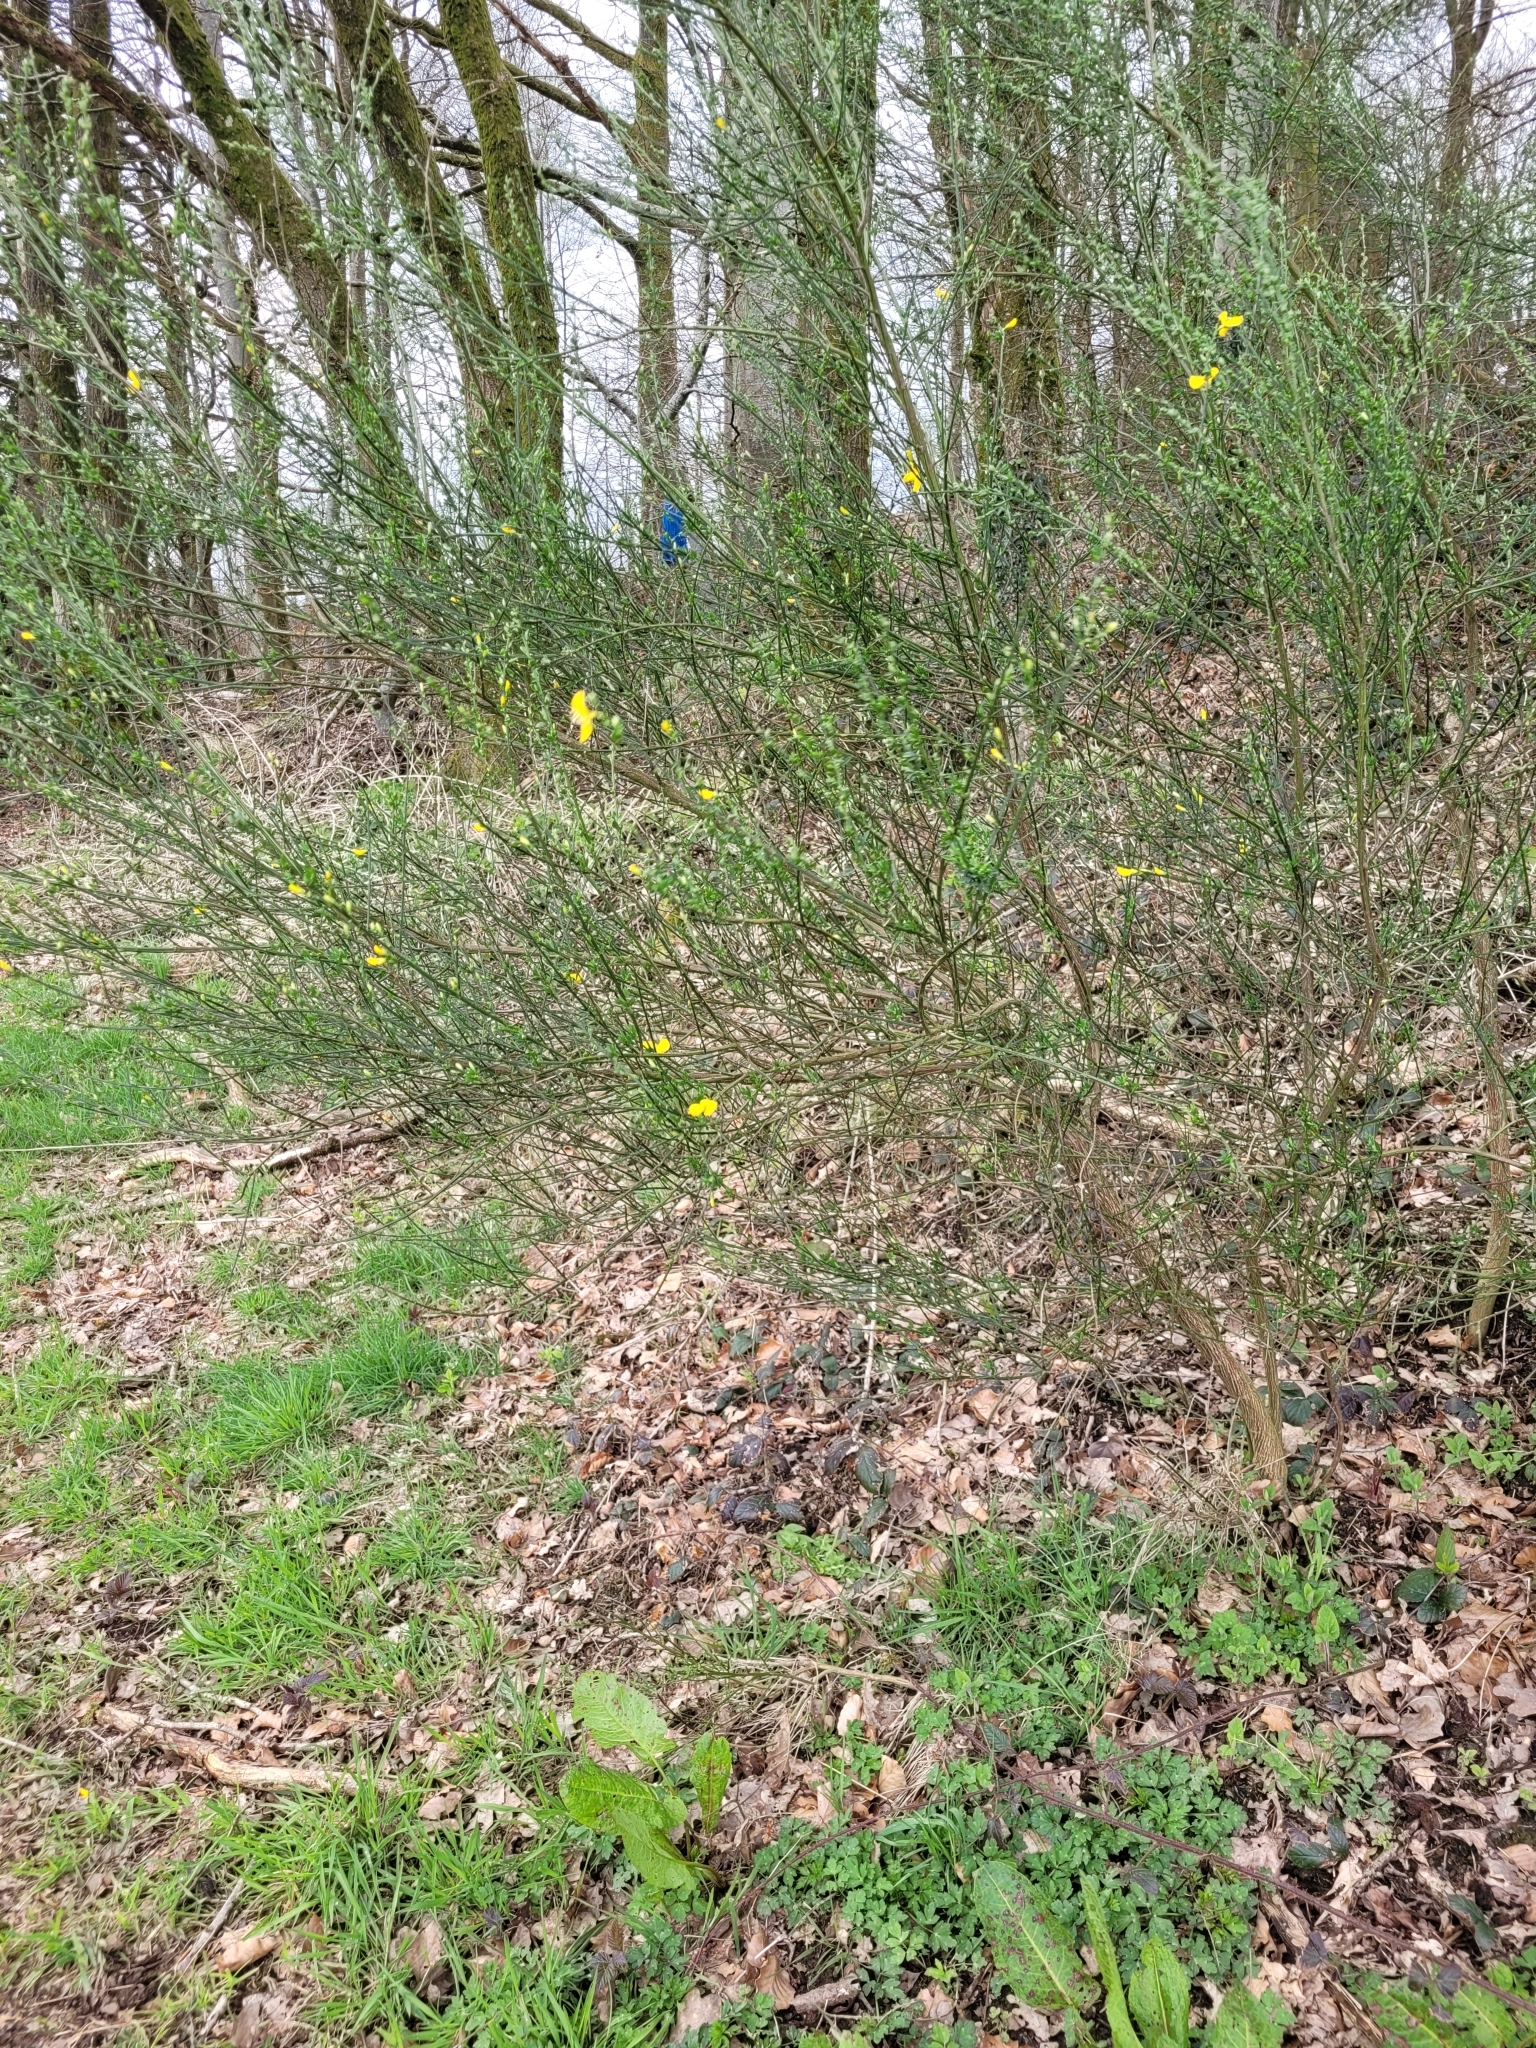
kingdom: Plantae
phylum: Tracheophyta
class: Magnoliopsida
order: Fabales
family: Fabaceae
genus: Cytisus
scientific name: Cytisus scoparius
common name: Scotch broom
